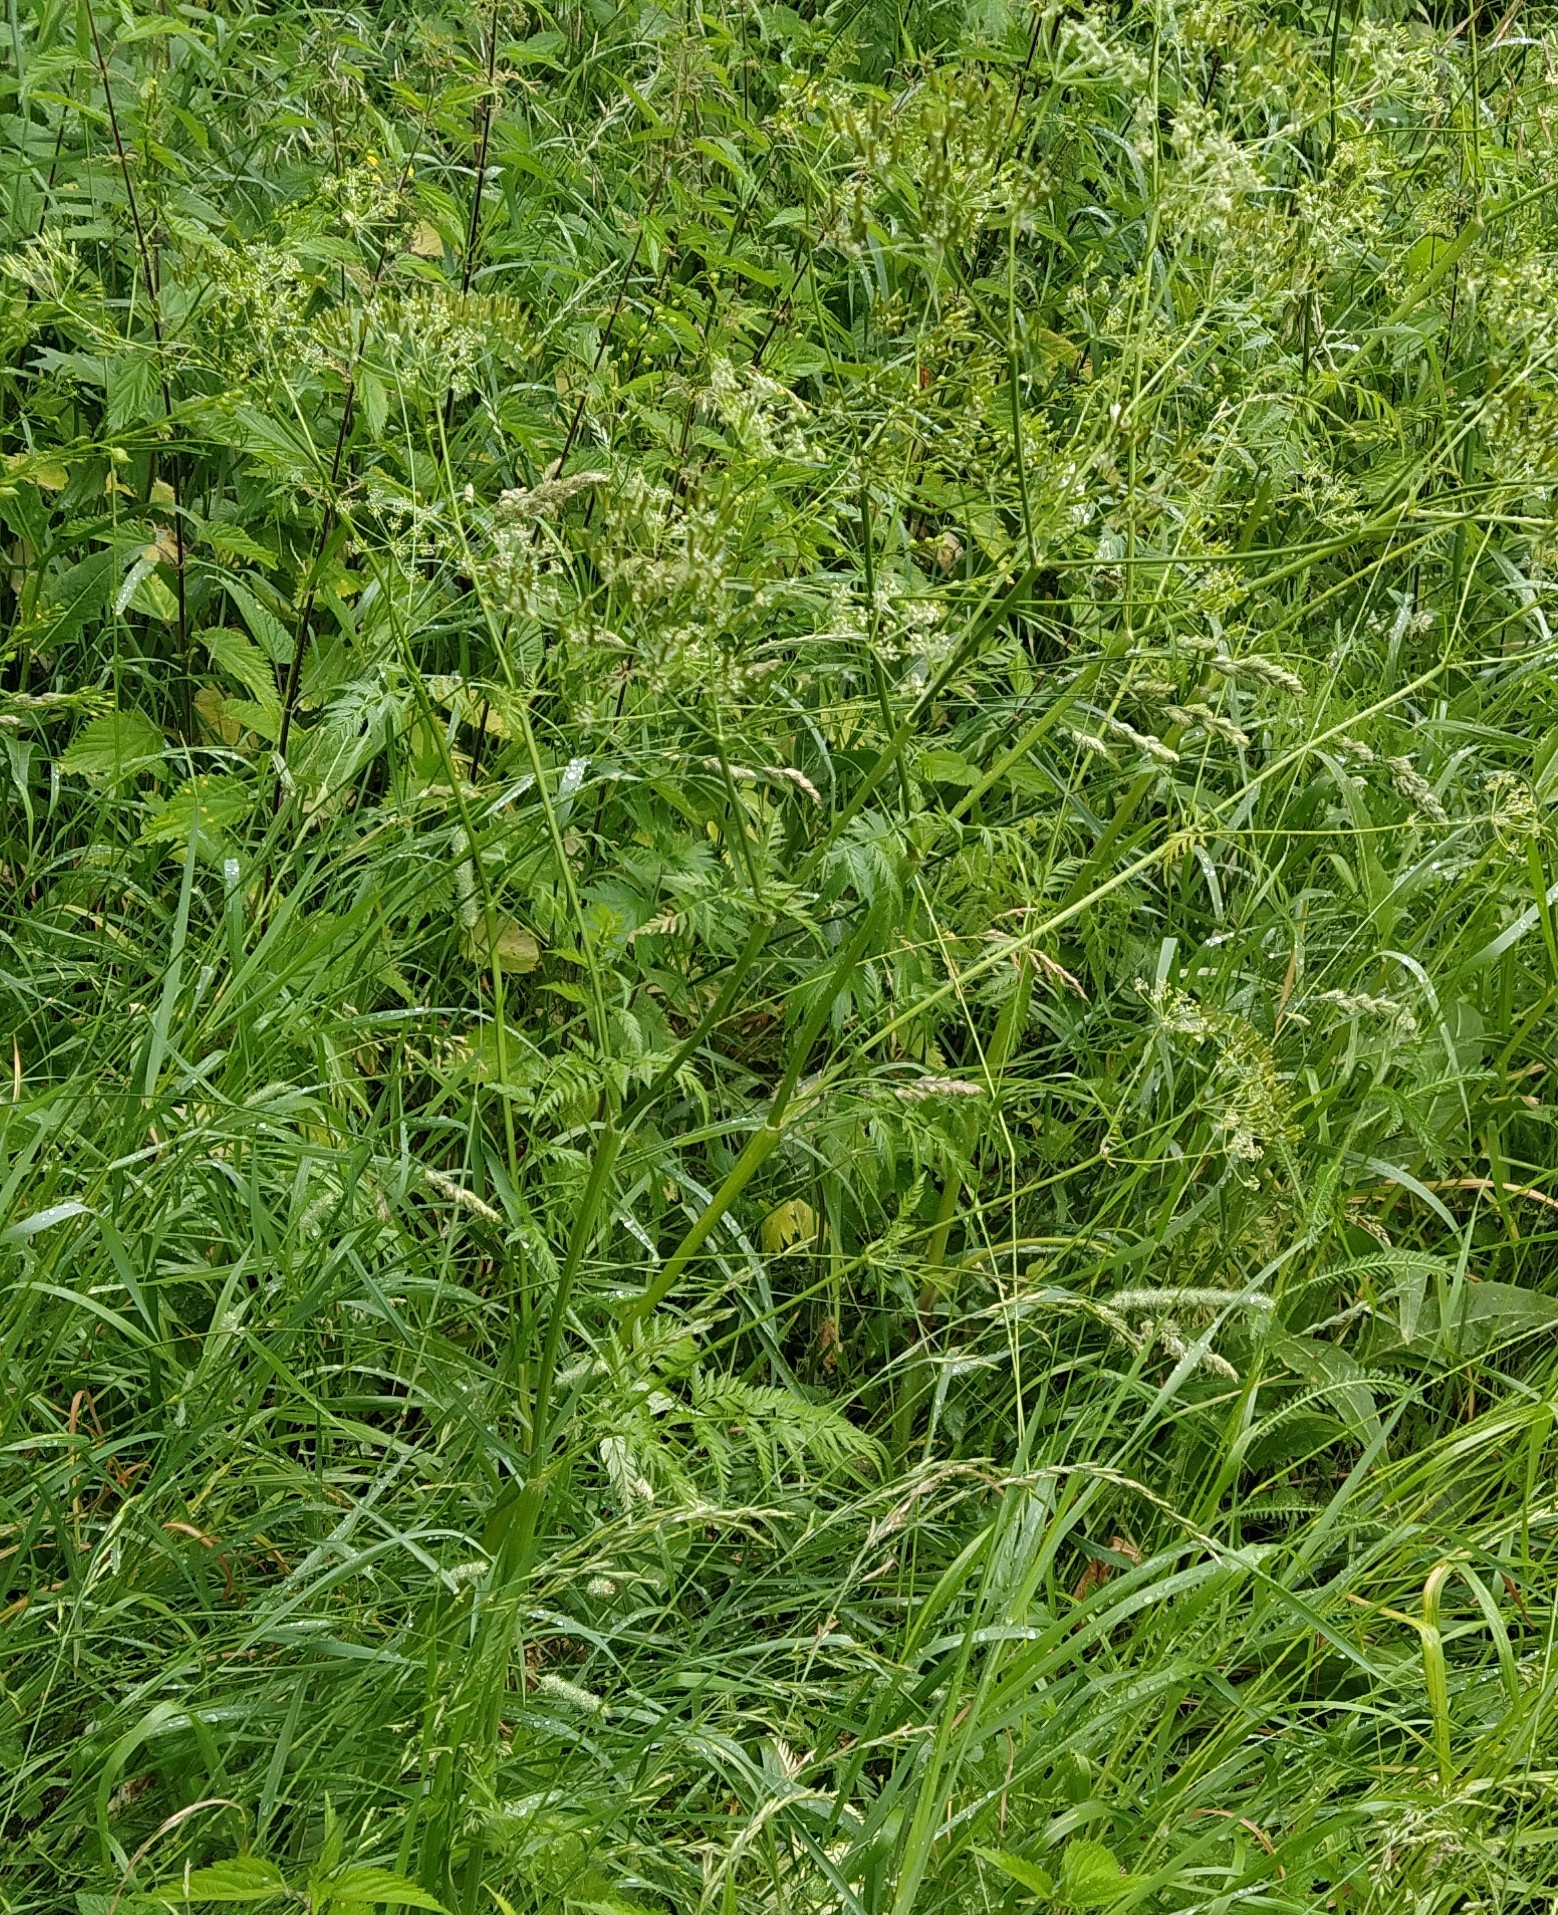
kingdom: Plantae
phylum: Tracheophyta
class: Magnoliopsida
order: Apiales
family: Apiaceae
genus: Anthriscus
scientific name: Anthriscus sylvestris
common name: Cow parsley
